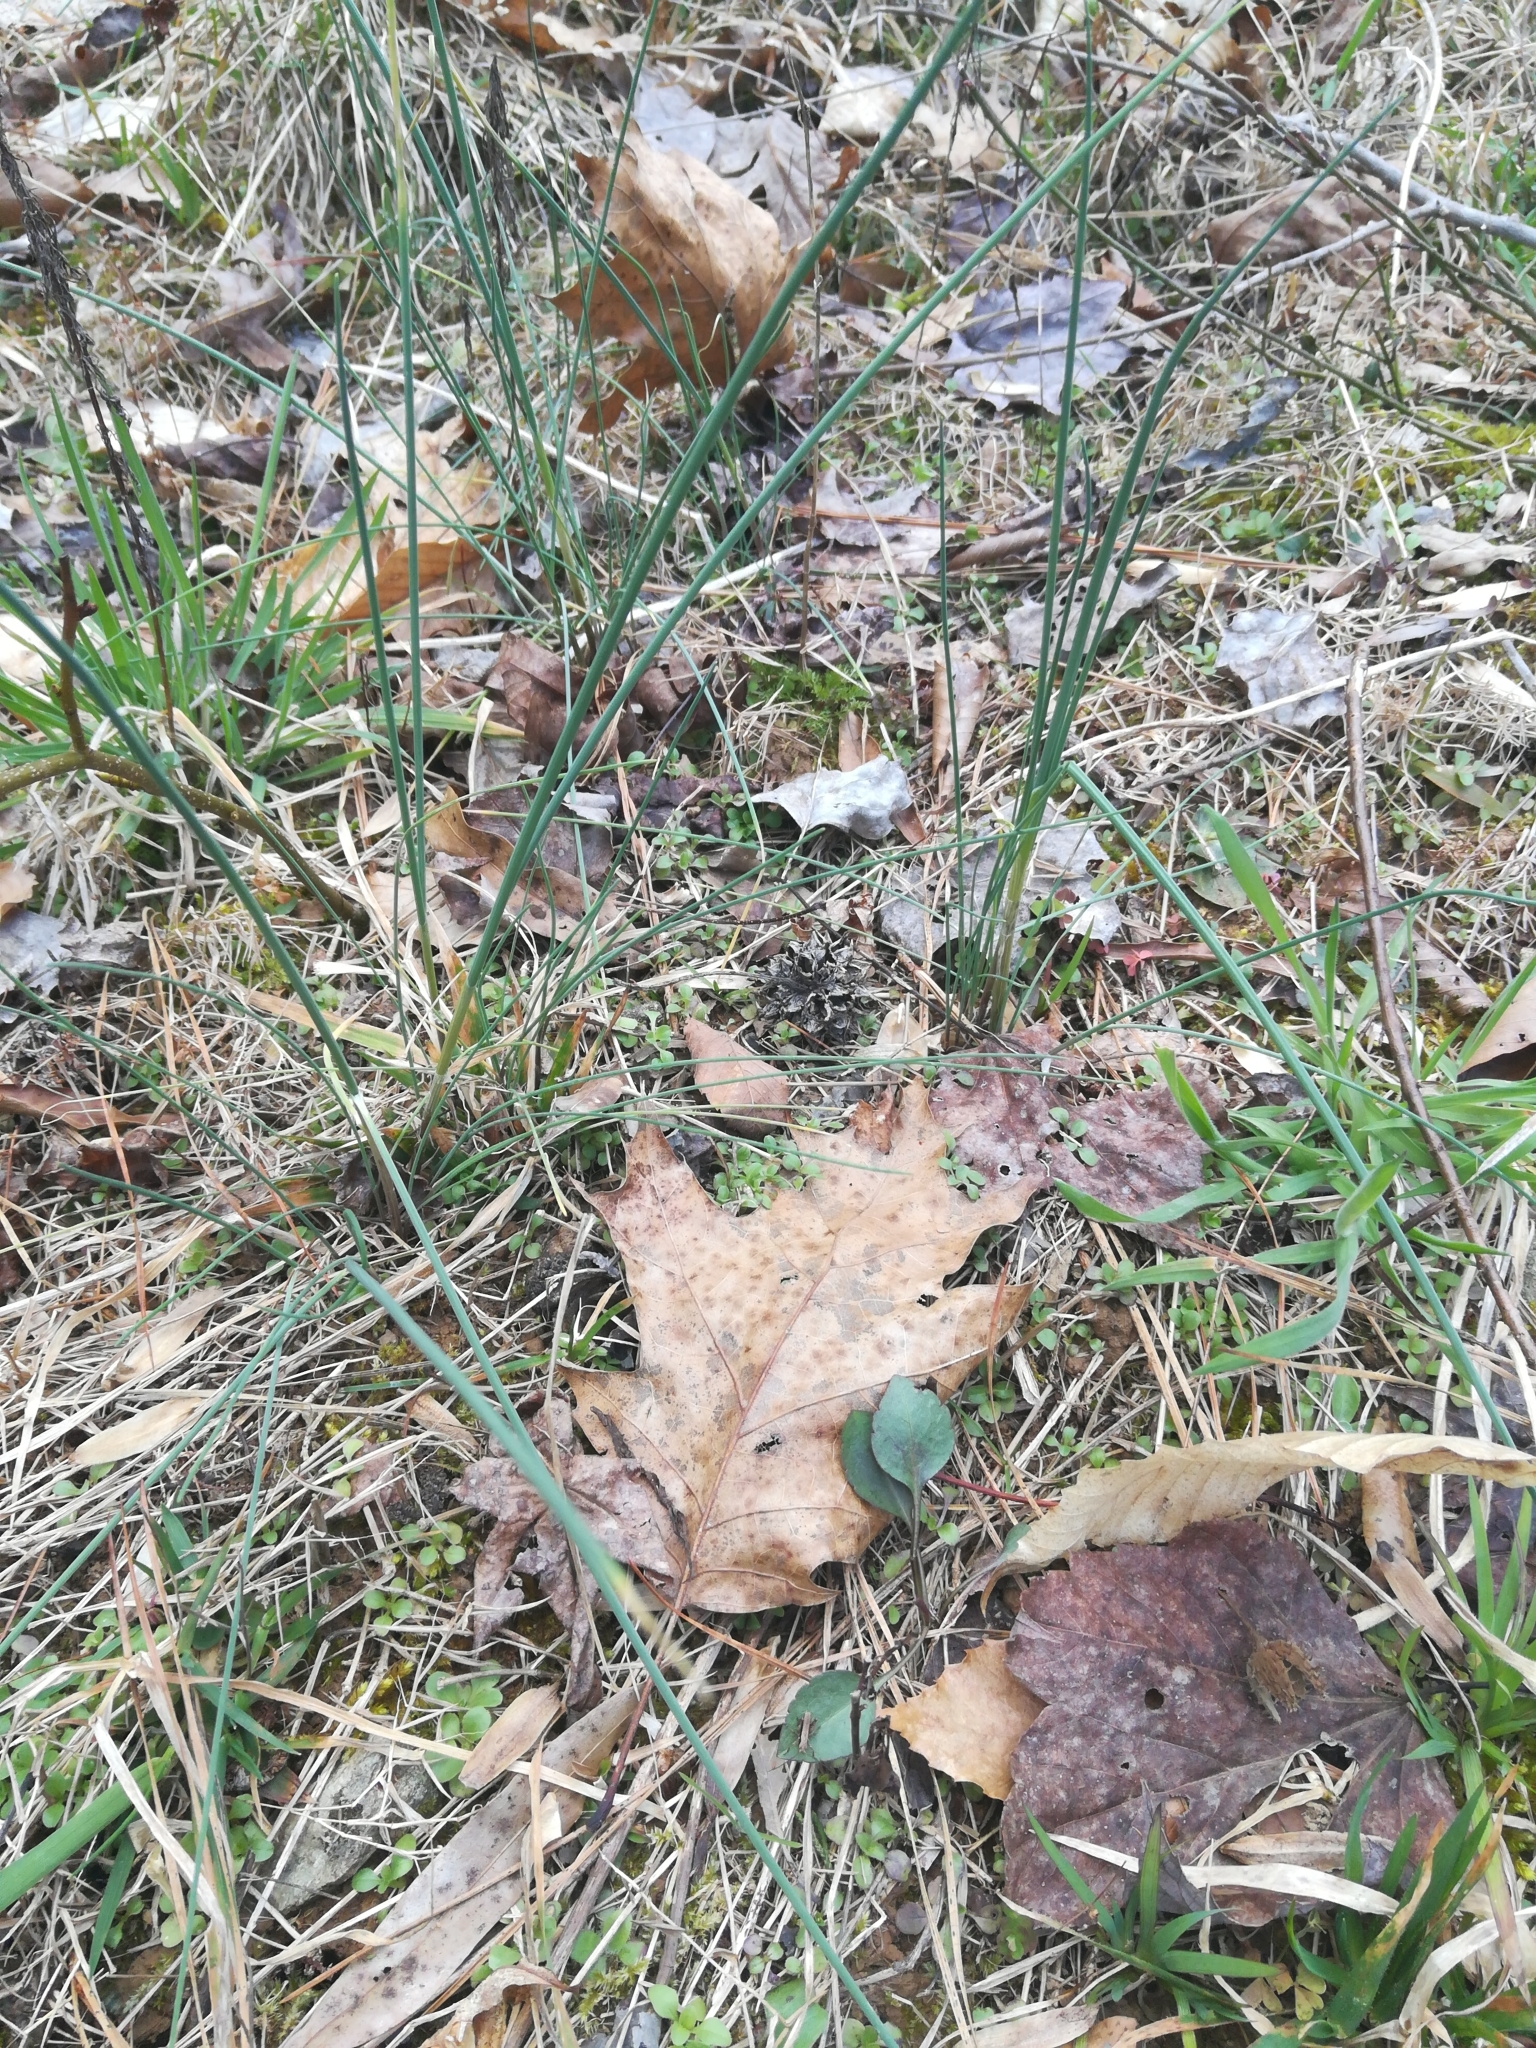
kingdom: Plantae
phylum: Tracheophyta
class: Liliopsida
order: Asparagales
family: Amaryllidaceae
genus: Allium
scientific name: Allium vineale
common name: Crow garlic
